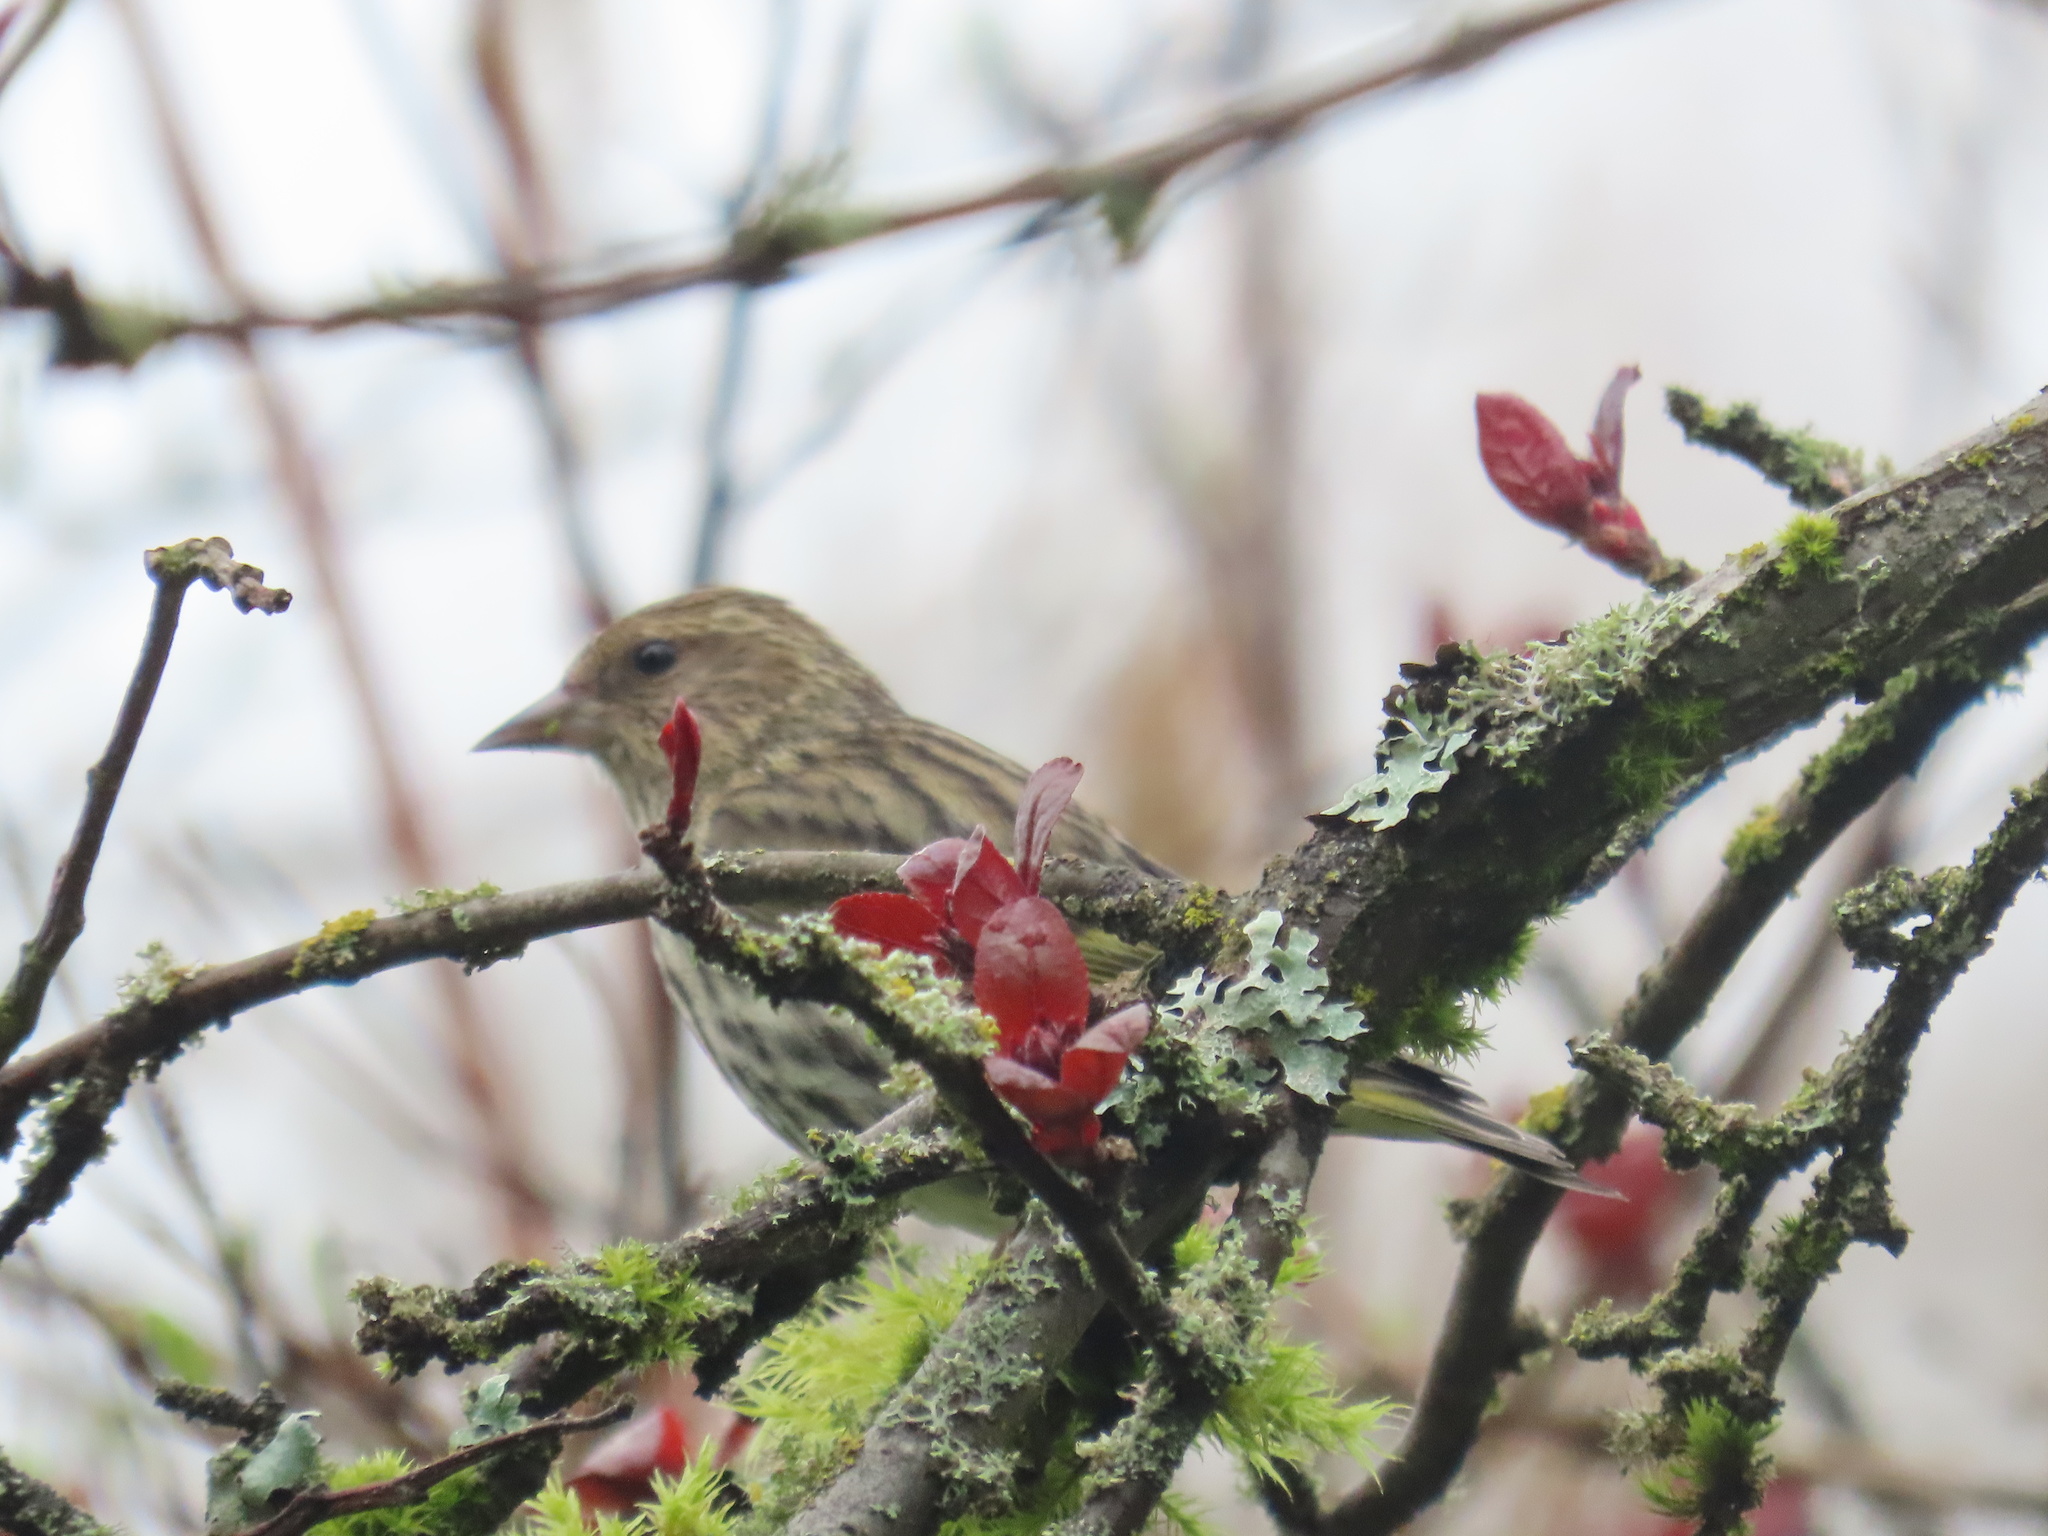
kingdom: Animalia
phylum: Chordata
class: Aves
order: Passeriformes
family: Fringillidae
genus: Spinus
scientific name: Spinus pinus
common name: Pine siskin
